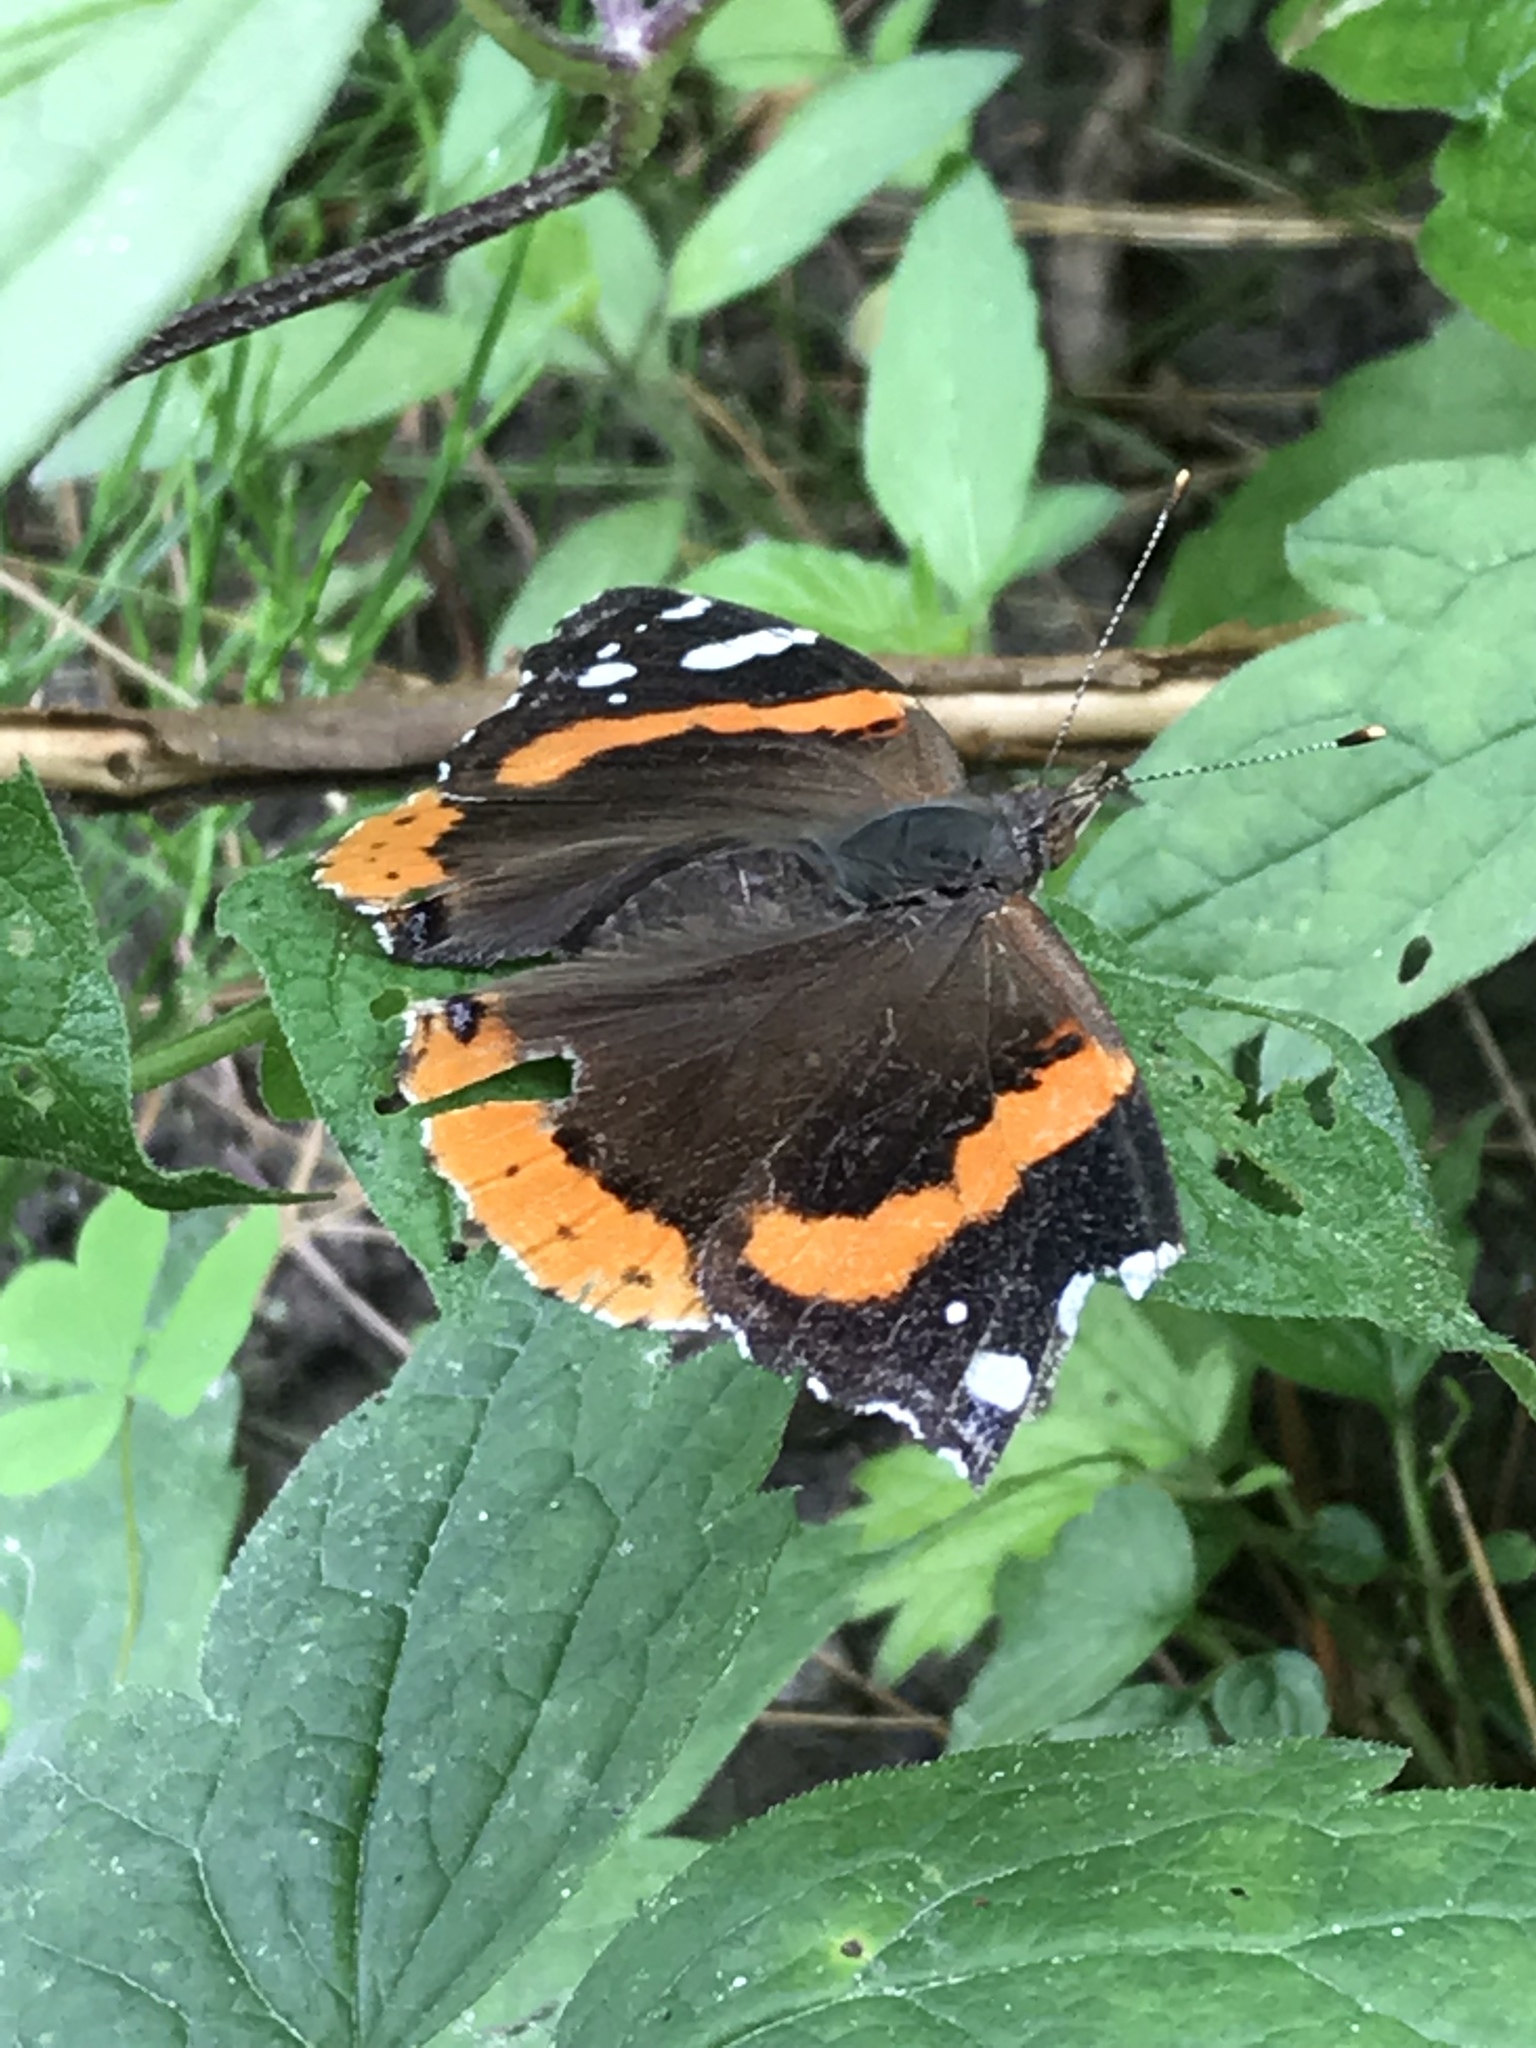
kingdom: Animalia
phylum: Arthropoda
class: Insecta
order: Lepidoptera
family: Nymphalidae
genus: Vanessa
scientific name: Vanessa atalanta
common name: Red admiral
